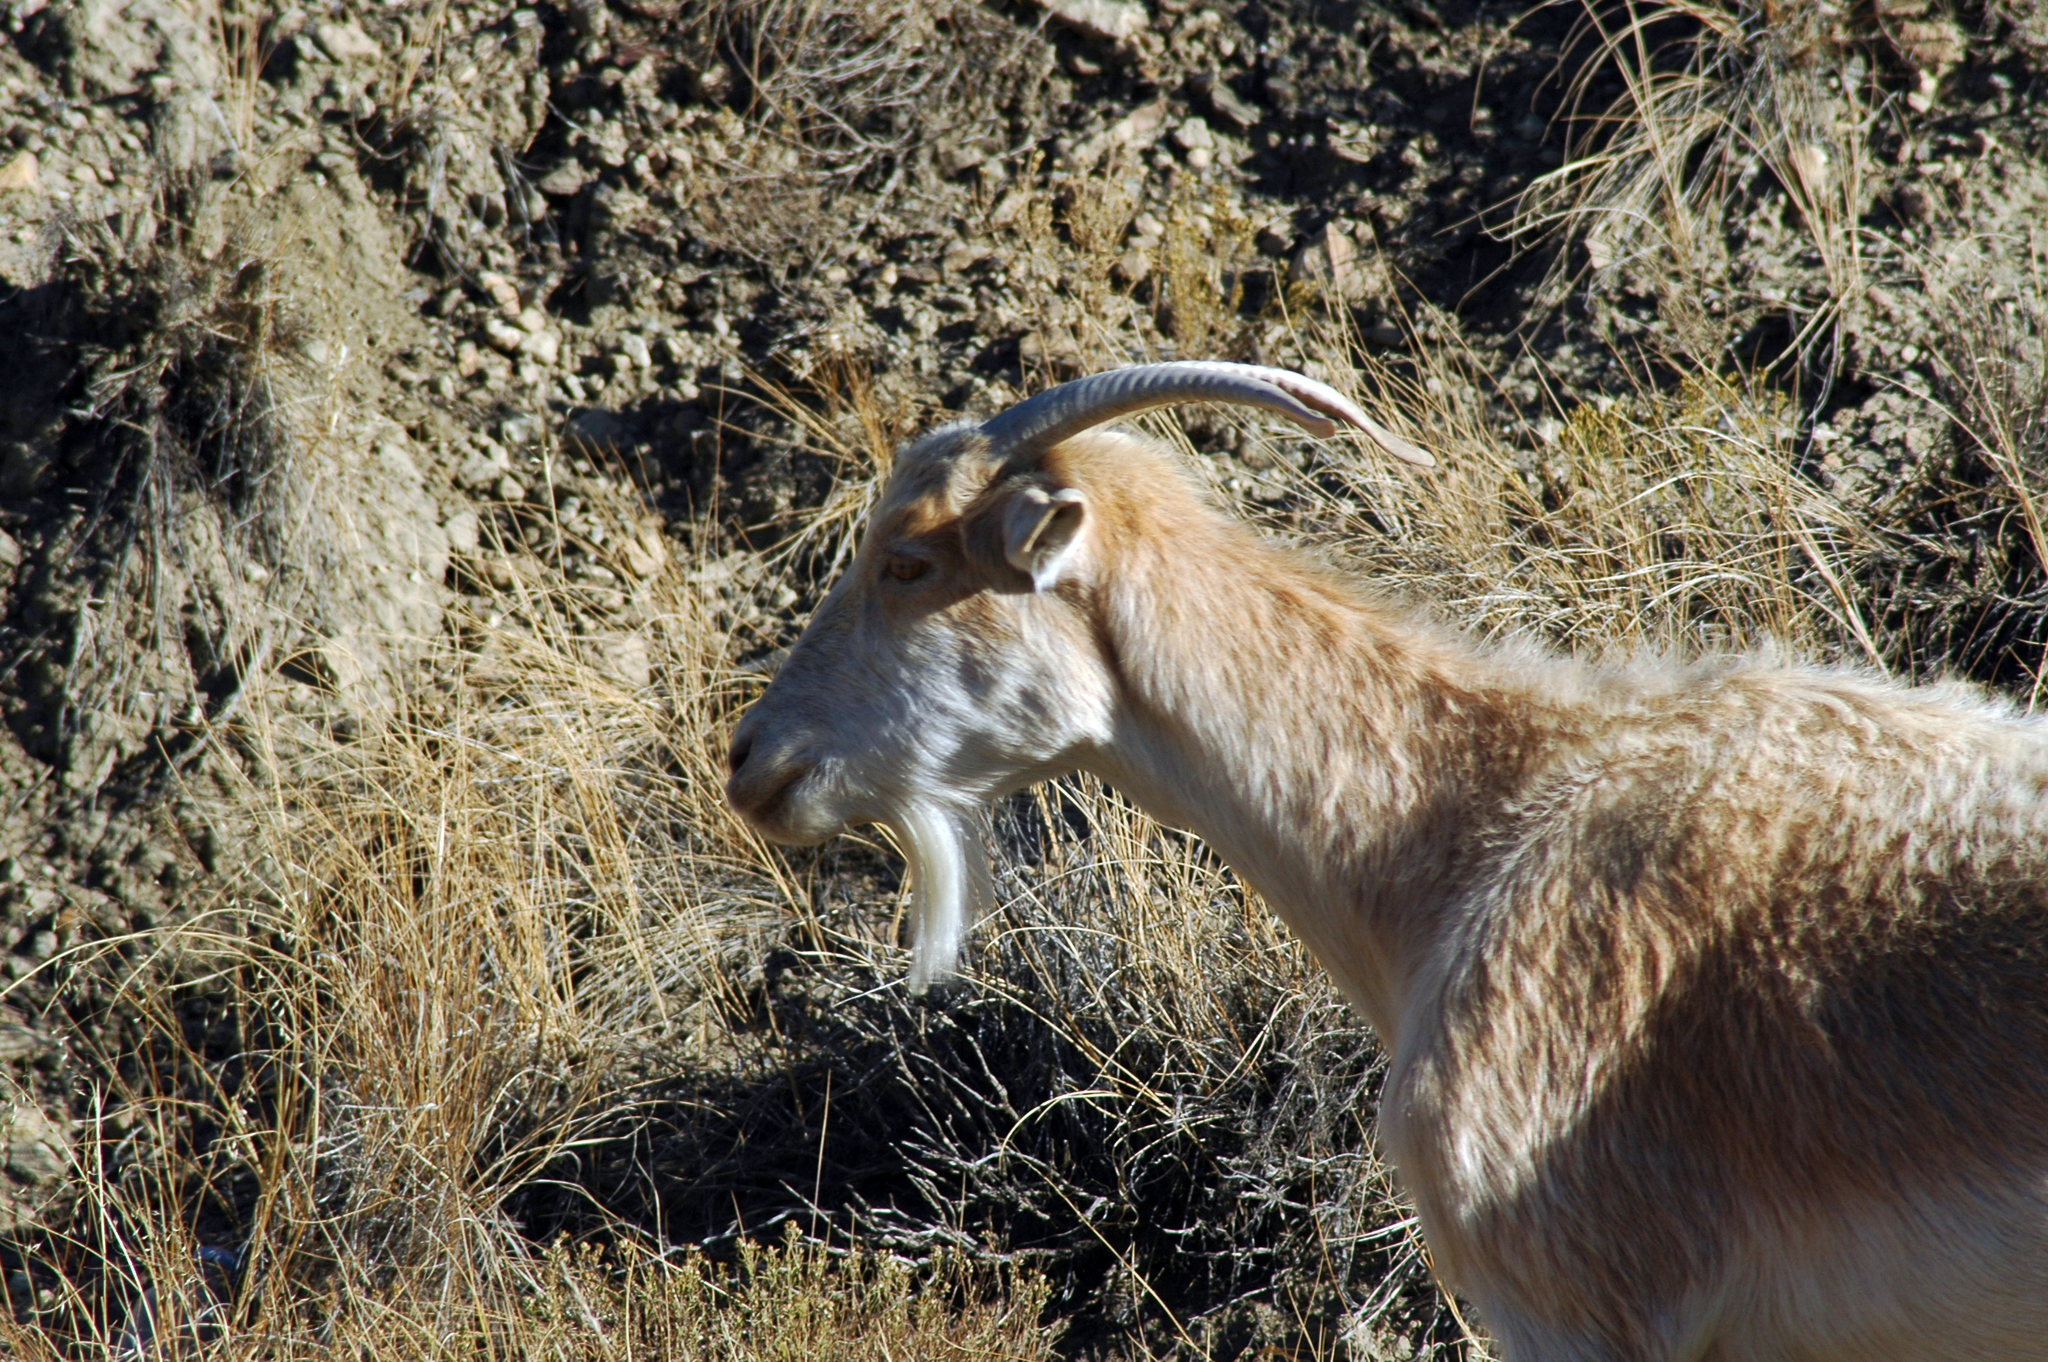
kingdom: Animalia
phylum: Chordata
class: Mammalia
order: Artiodactyla
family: Bovidae
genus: Capra
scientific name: Capra hircus
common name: Domestic goat
